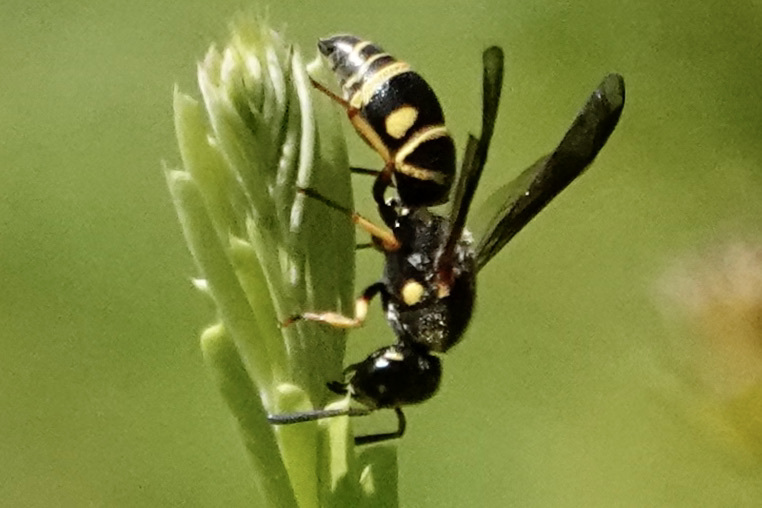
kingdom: Animalia
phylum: Arthropoda
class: Insecta
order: Hymenoptera
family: Eumenidae
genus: Parancistrocerus
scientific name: Parancistrocerus salcularis
